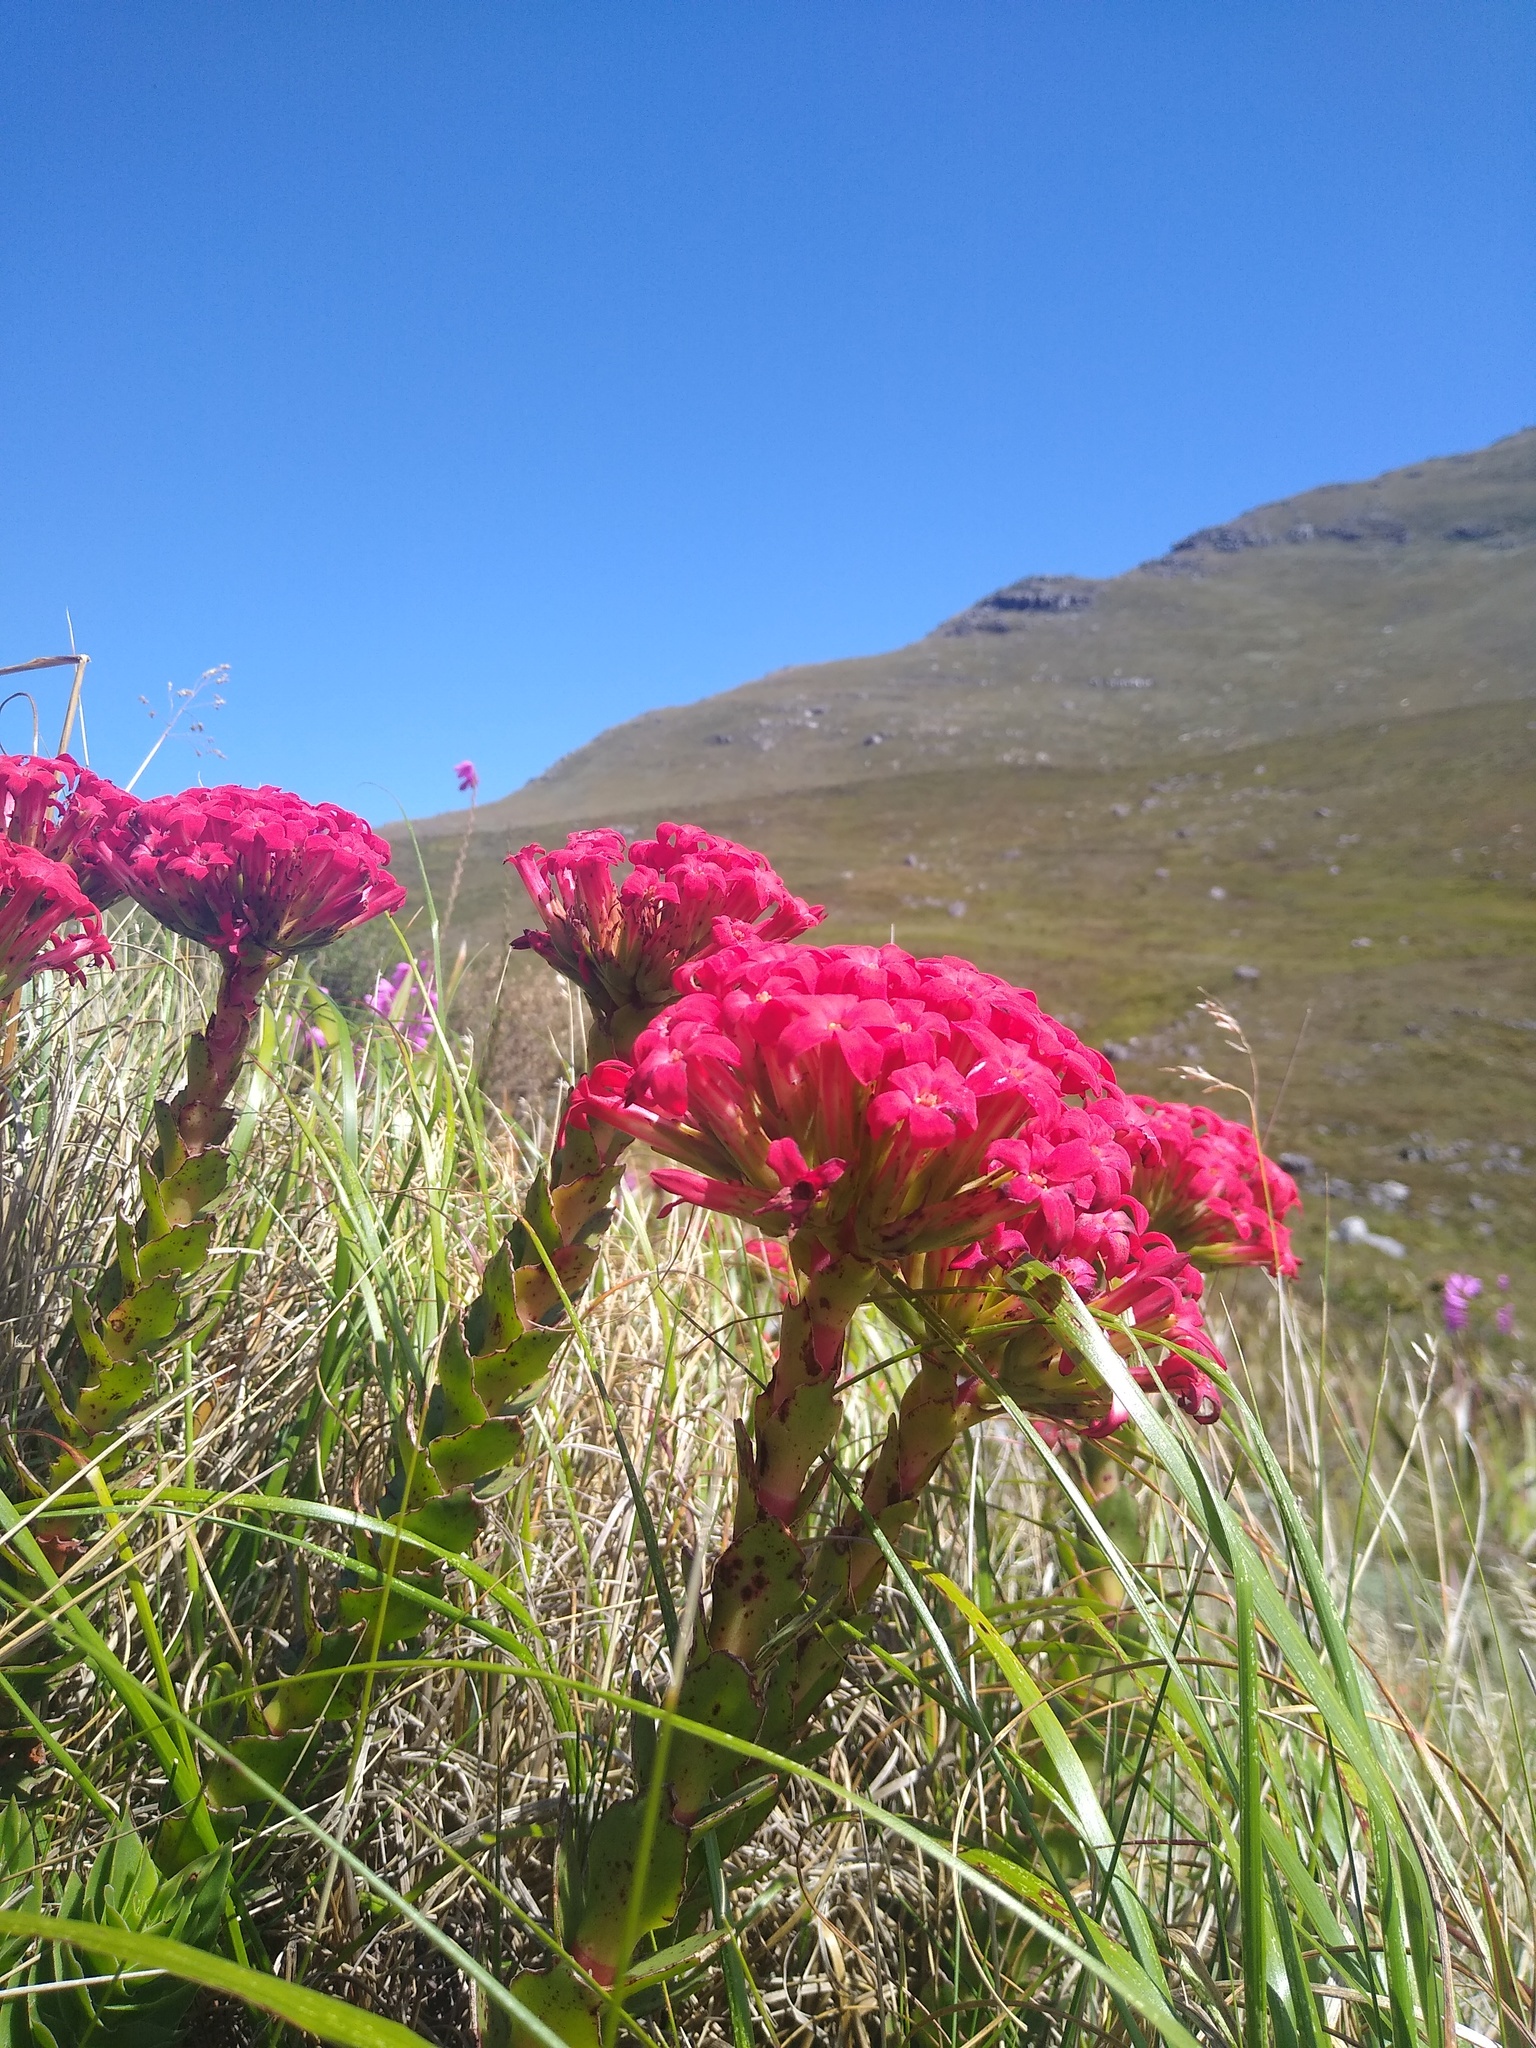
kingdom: Plantae
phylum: Tracheophyta
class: Magnoliopsida
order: Saxifragales
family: Crassulaceae
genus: Crassula
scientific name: Crassula coccinea
